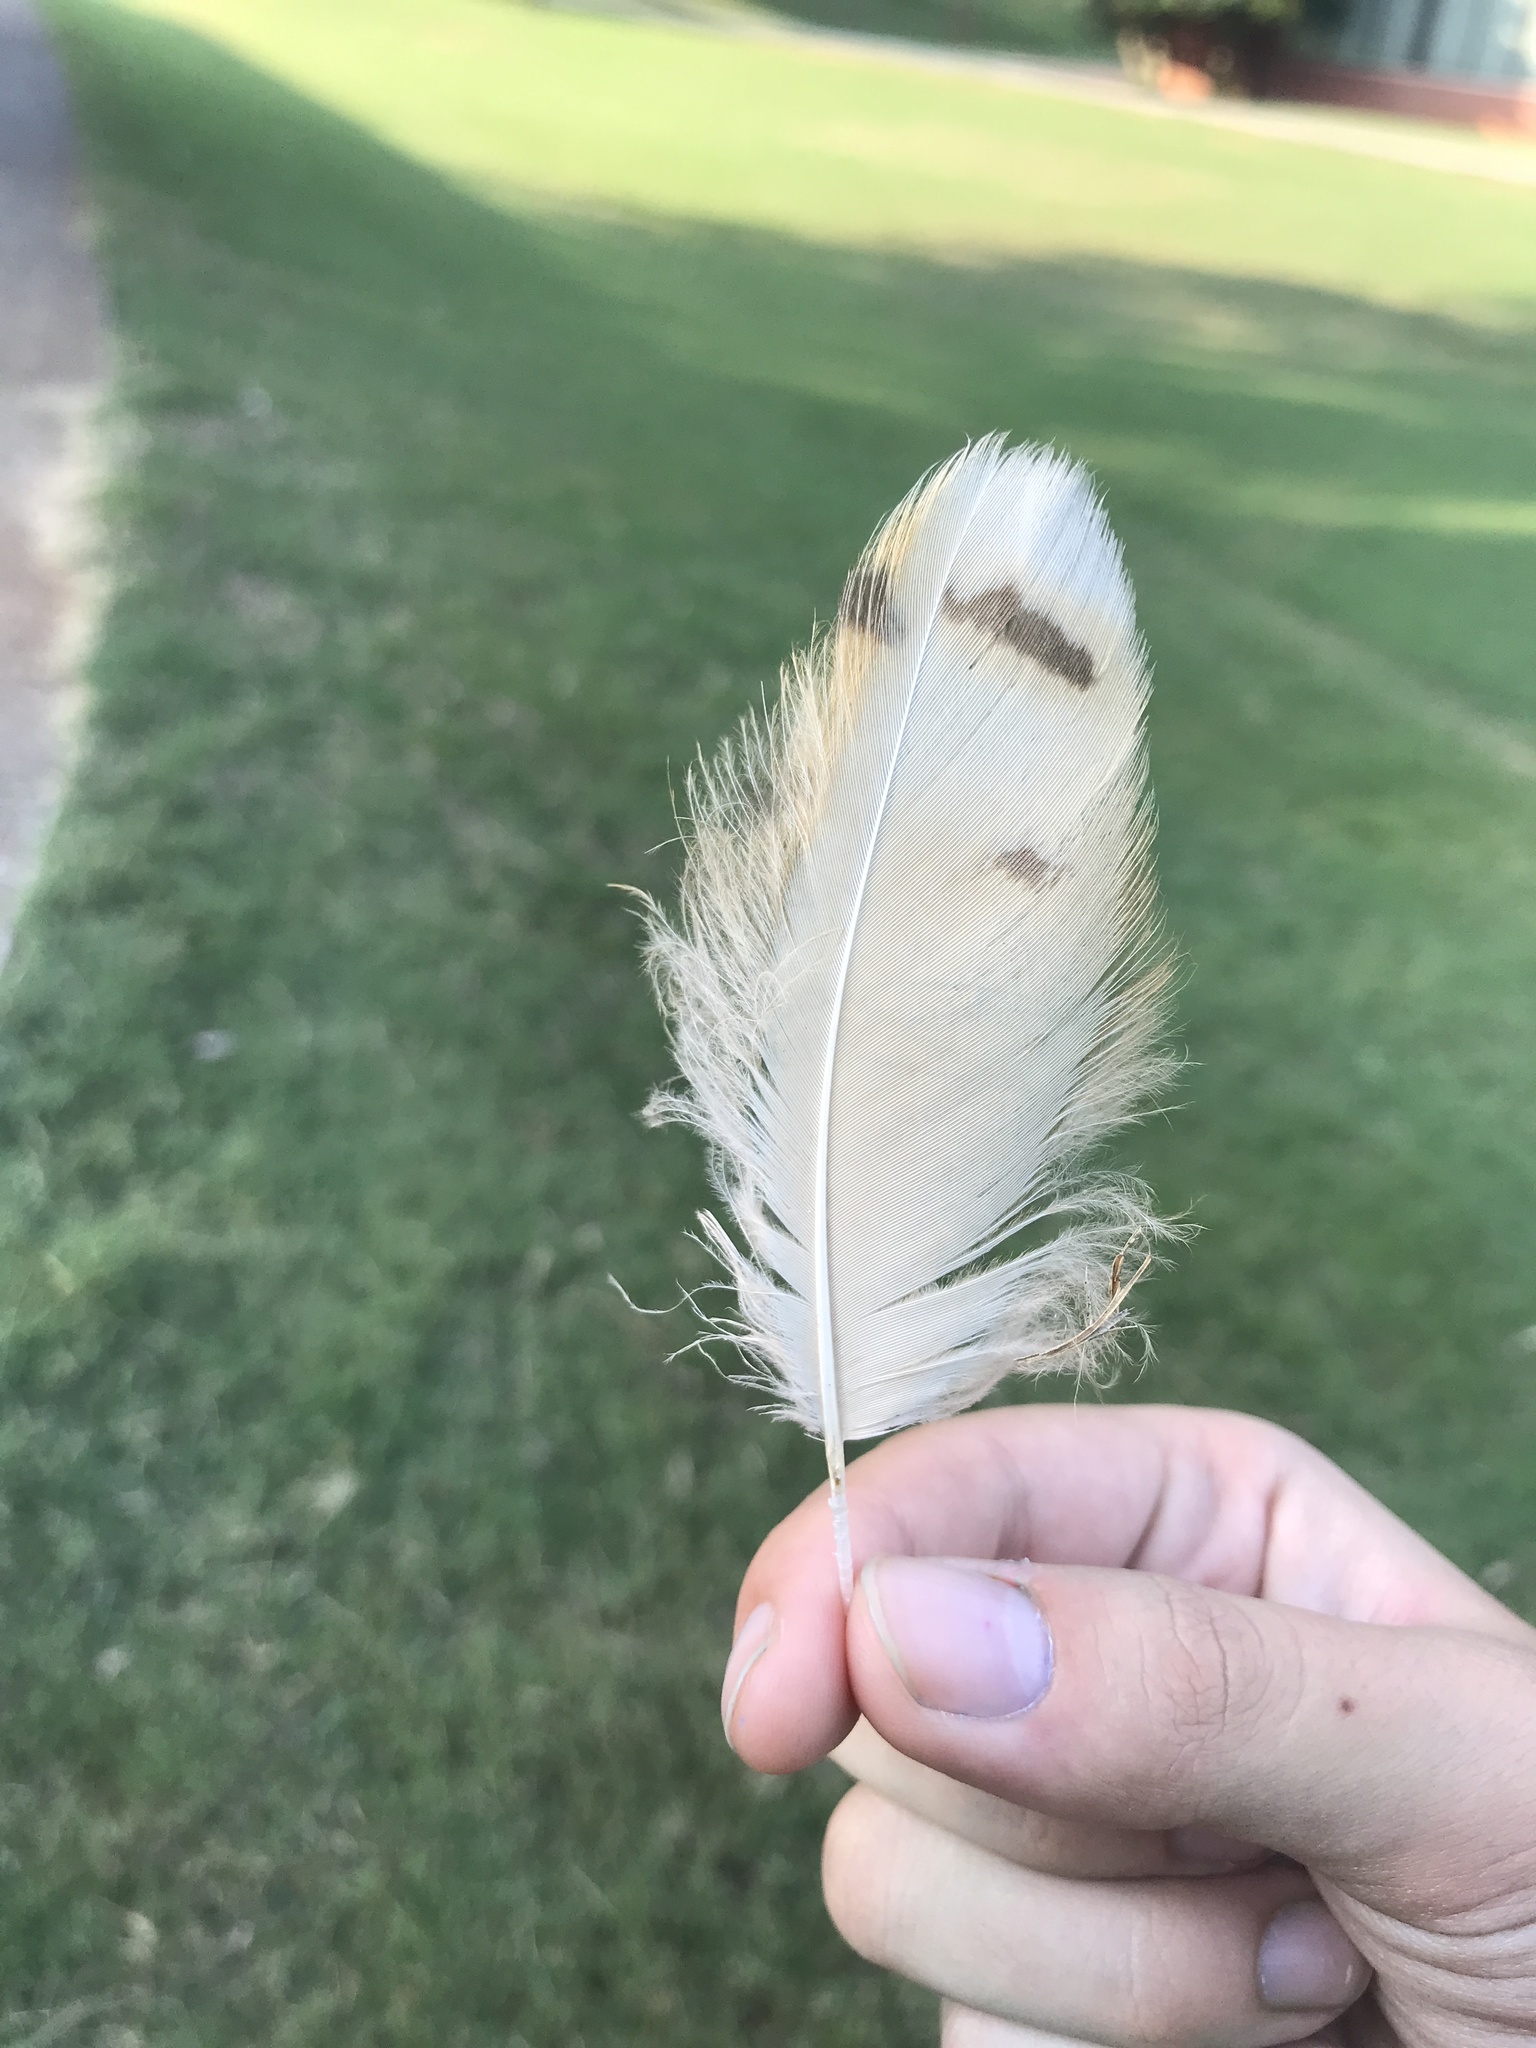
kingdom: Animalia
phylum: Chordata
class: Aves
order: Strigiformes
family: Strigidae
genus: Bubo
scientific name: Bubo virginianus
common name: Great horned owl
